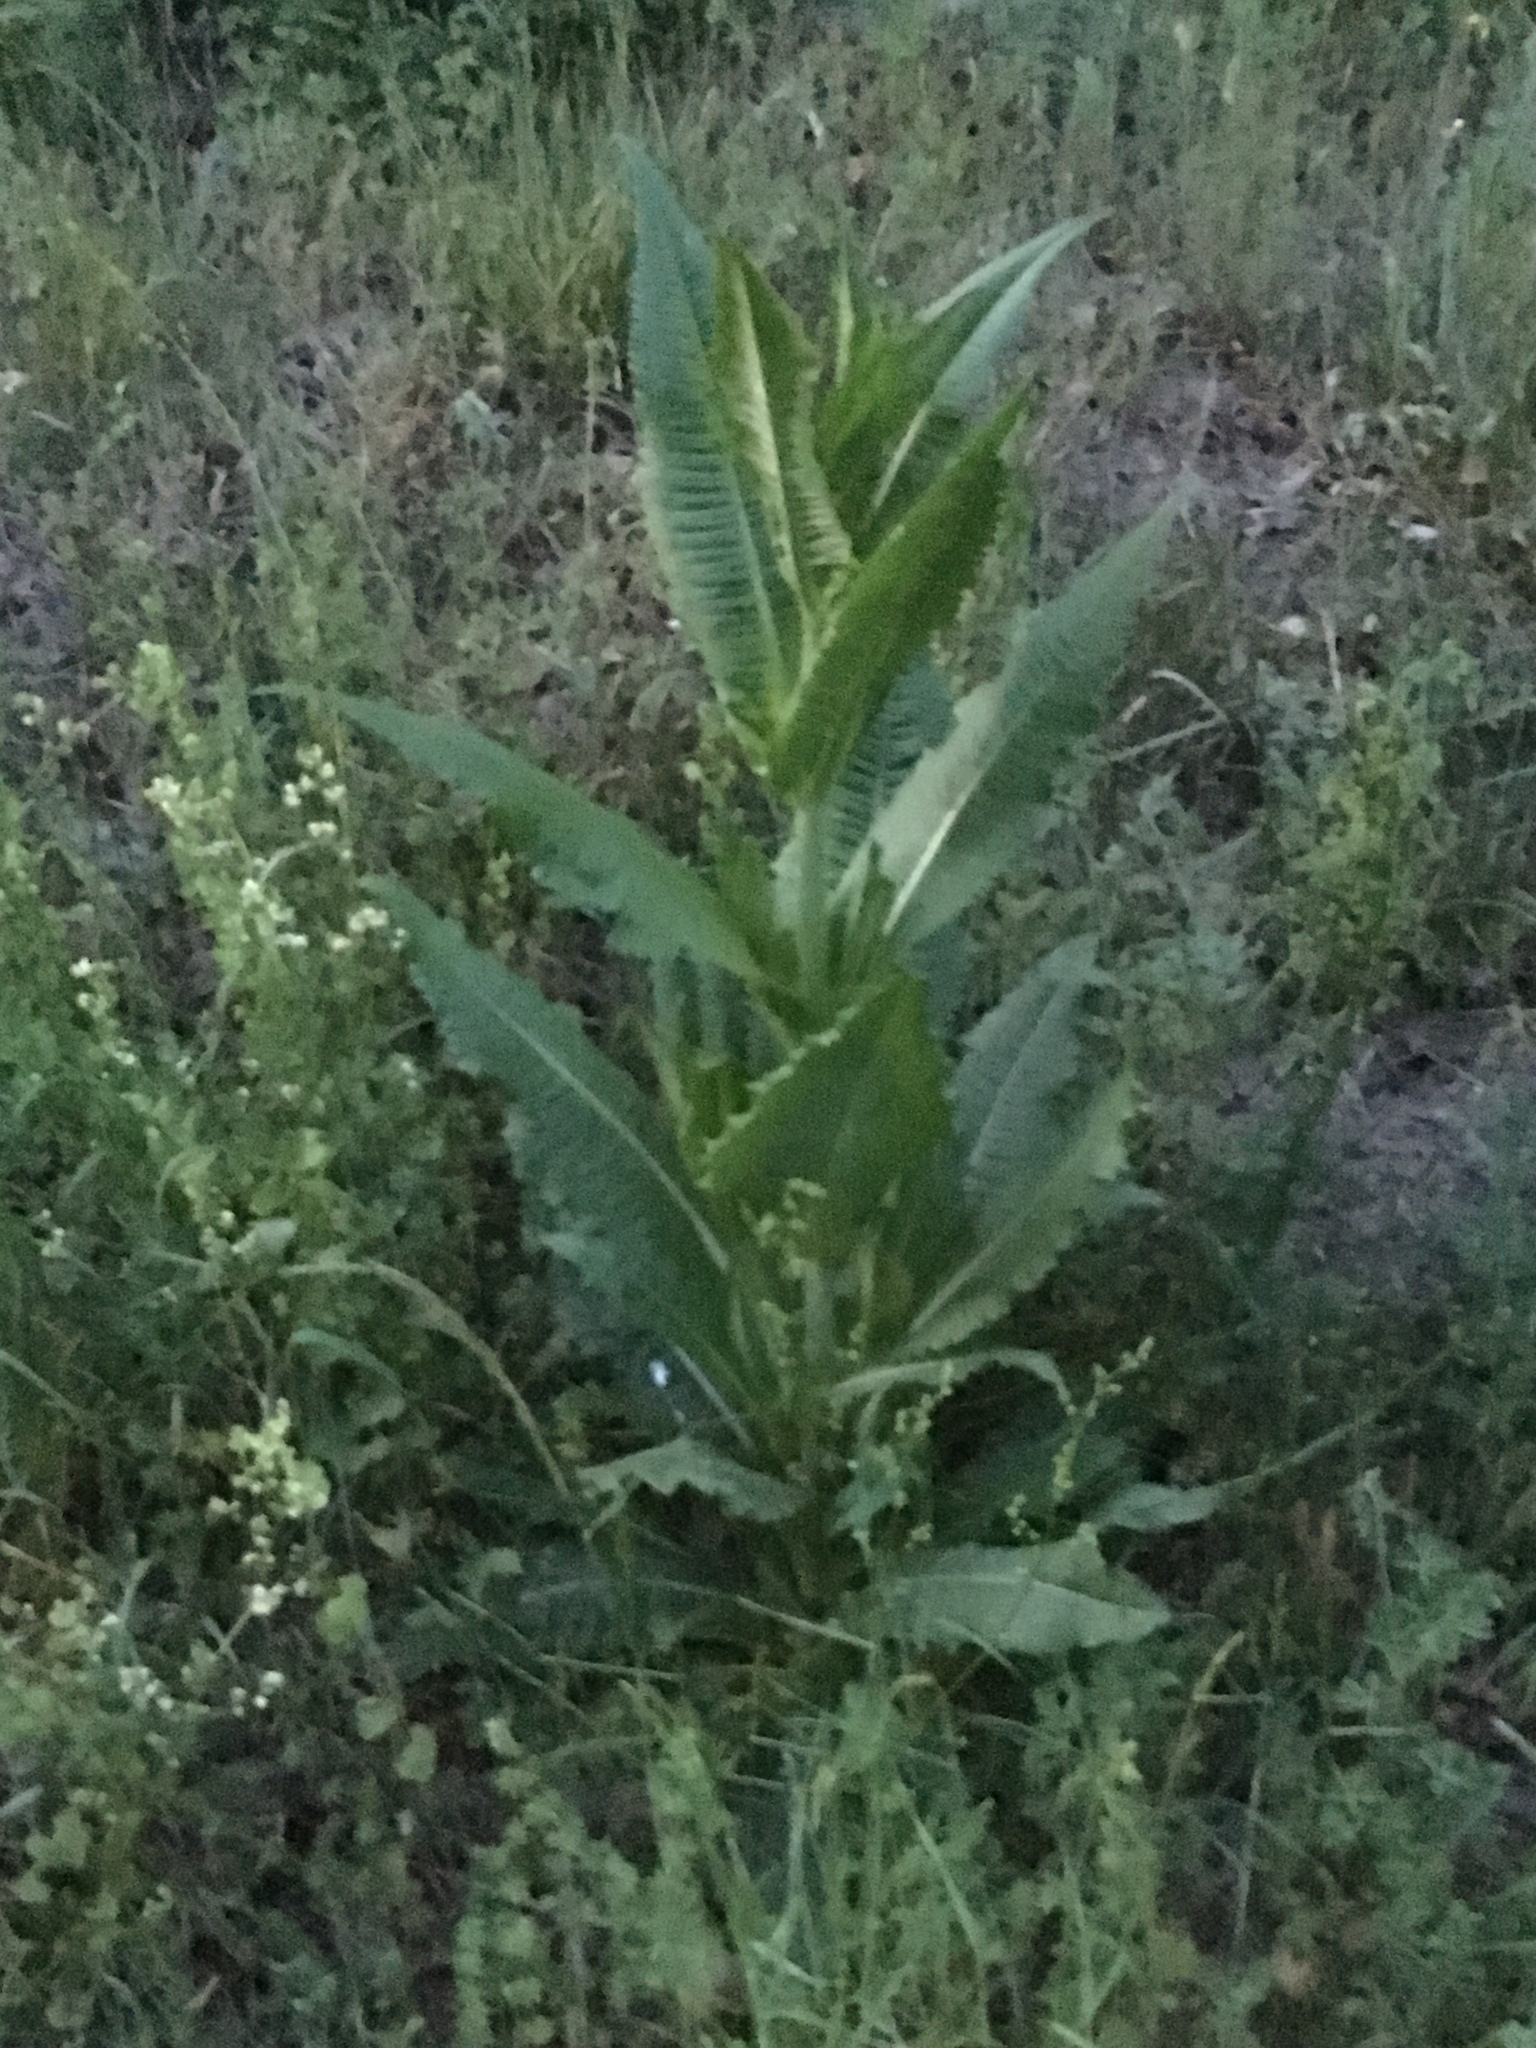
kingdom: Plantae
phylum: Tracheophyta
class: Magnoliopsida
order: Dipsacales
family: Caprifoliaceae
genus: Dipsacus
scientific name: Dipsacus fullonum
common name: Teasel
